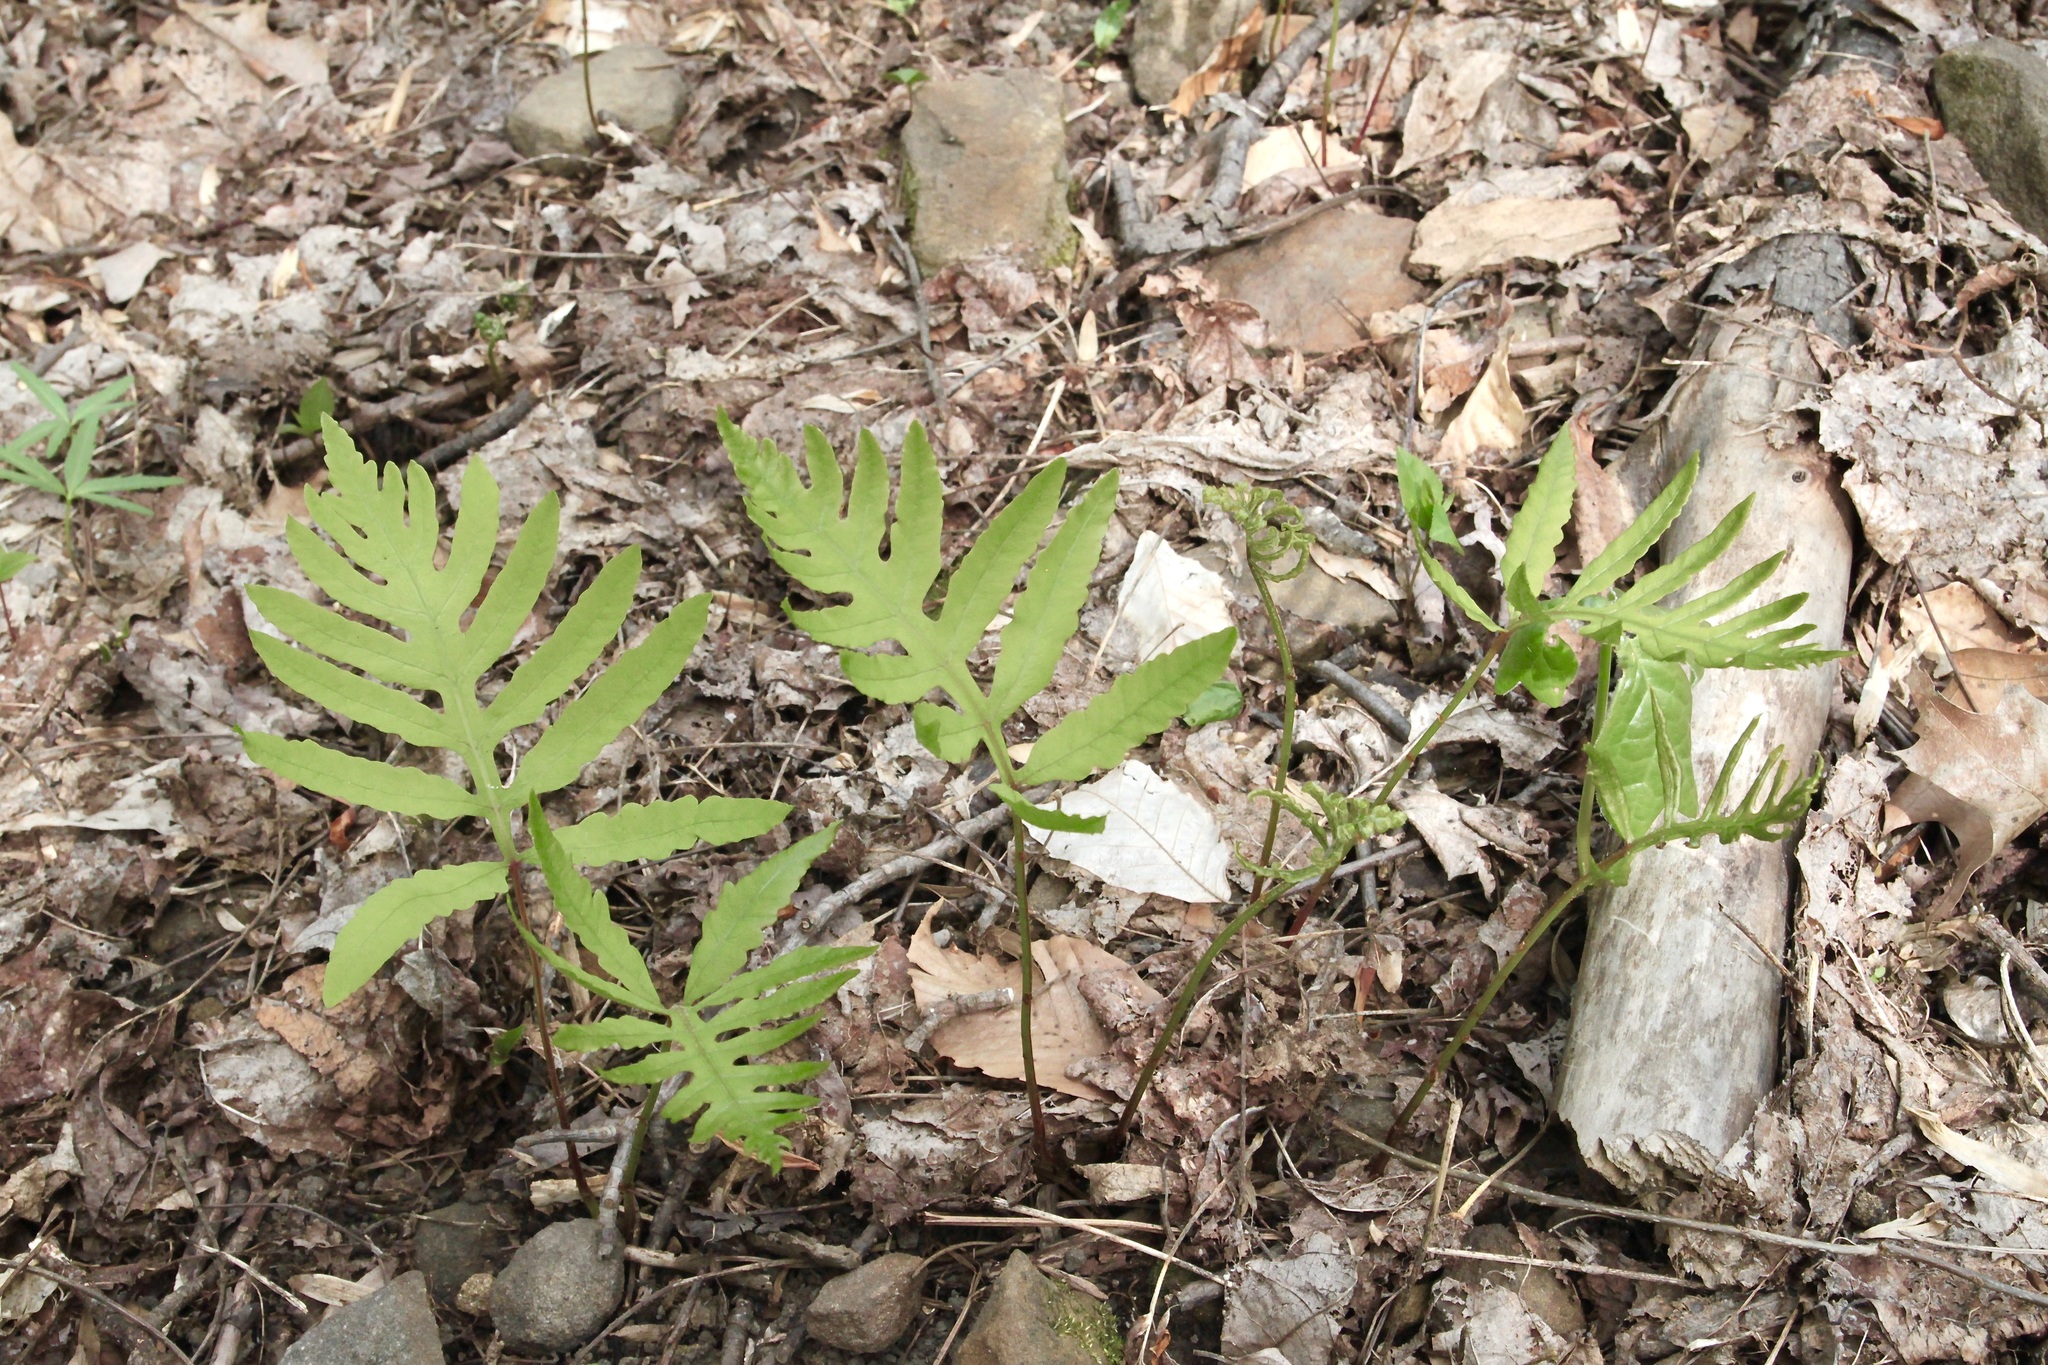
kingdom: Plantae
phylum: Tracheophyta
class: Polypodiopsida
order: Polypodiales
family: Onocleaceae
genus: Onoclea
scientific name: Onoclea sensibilis
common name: Sensitive fern
